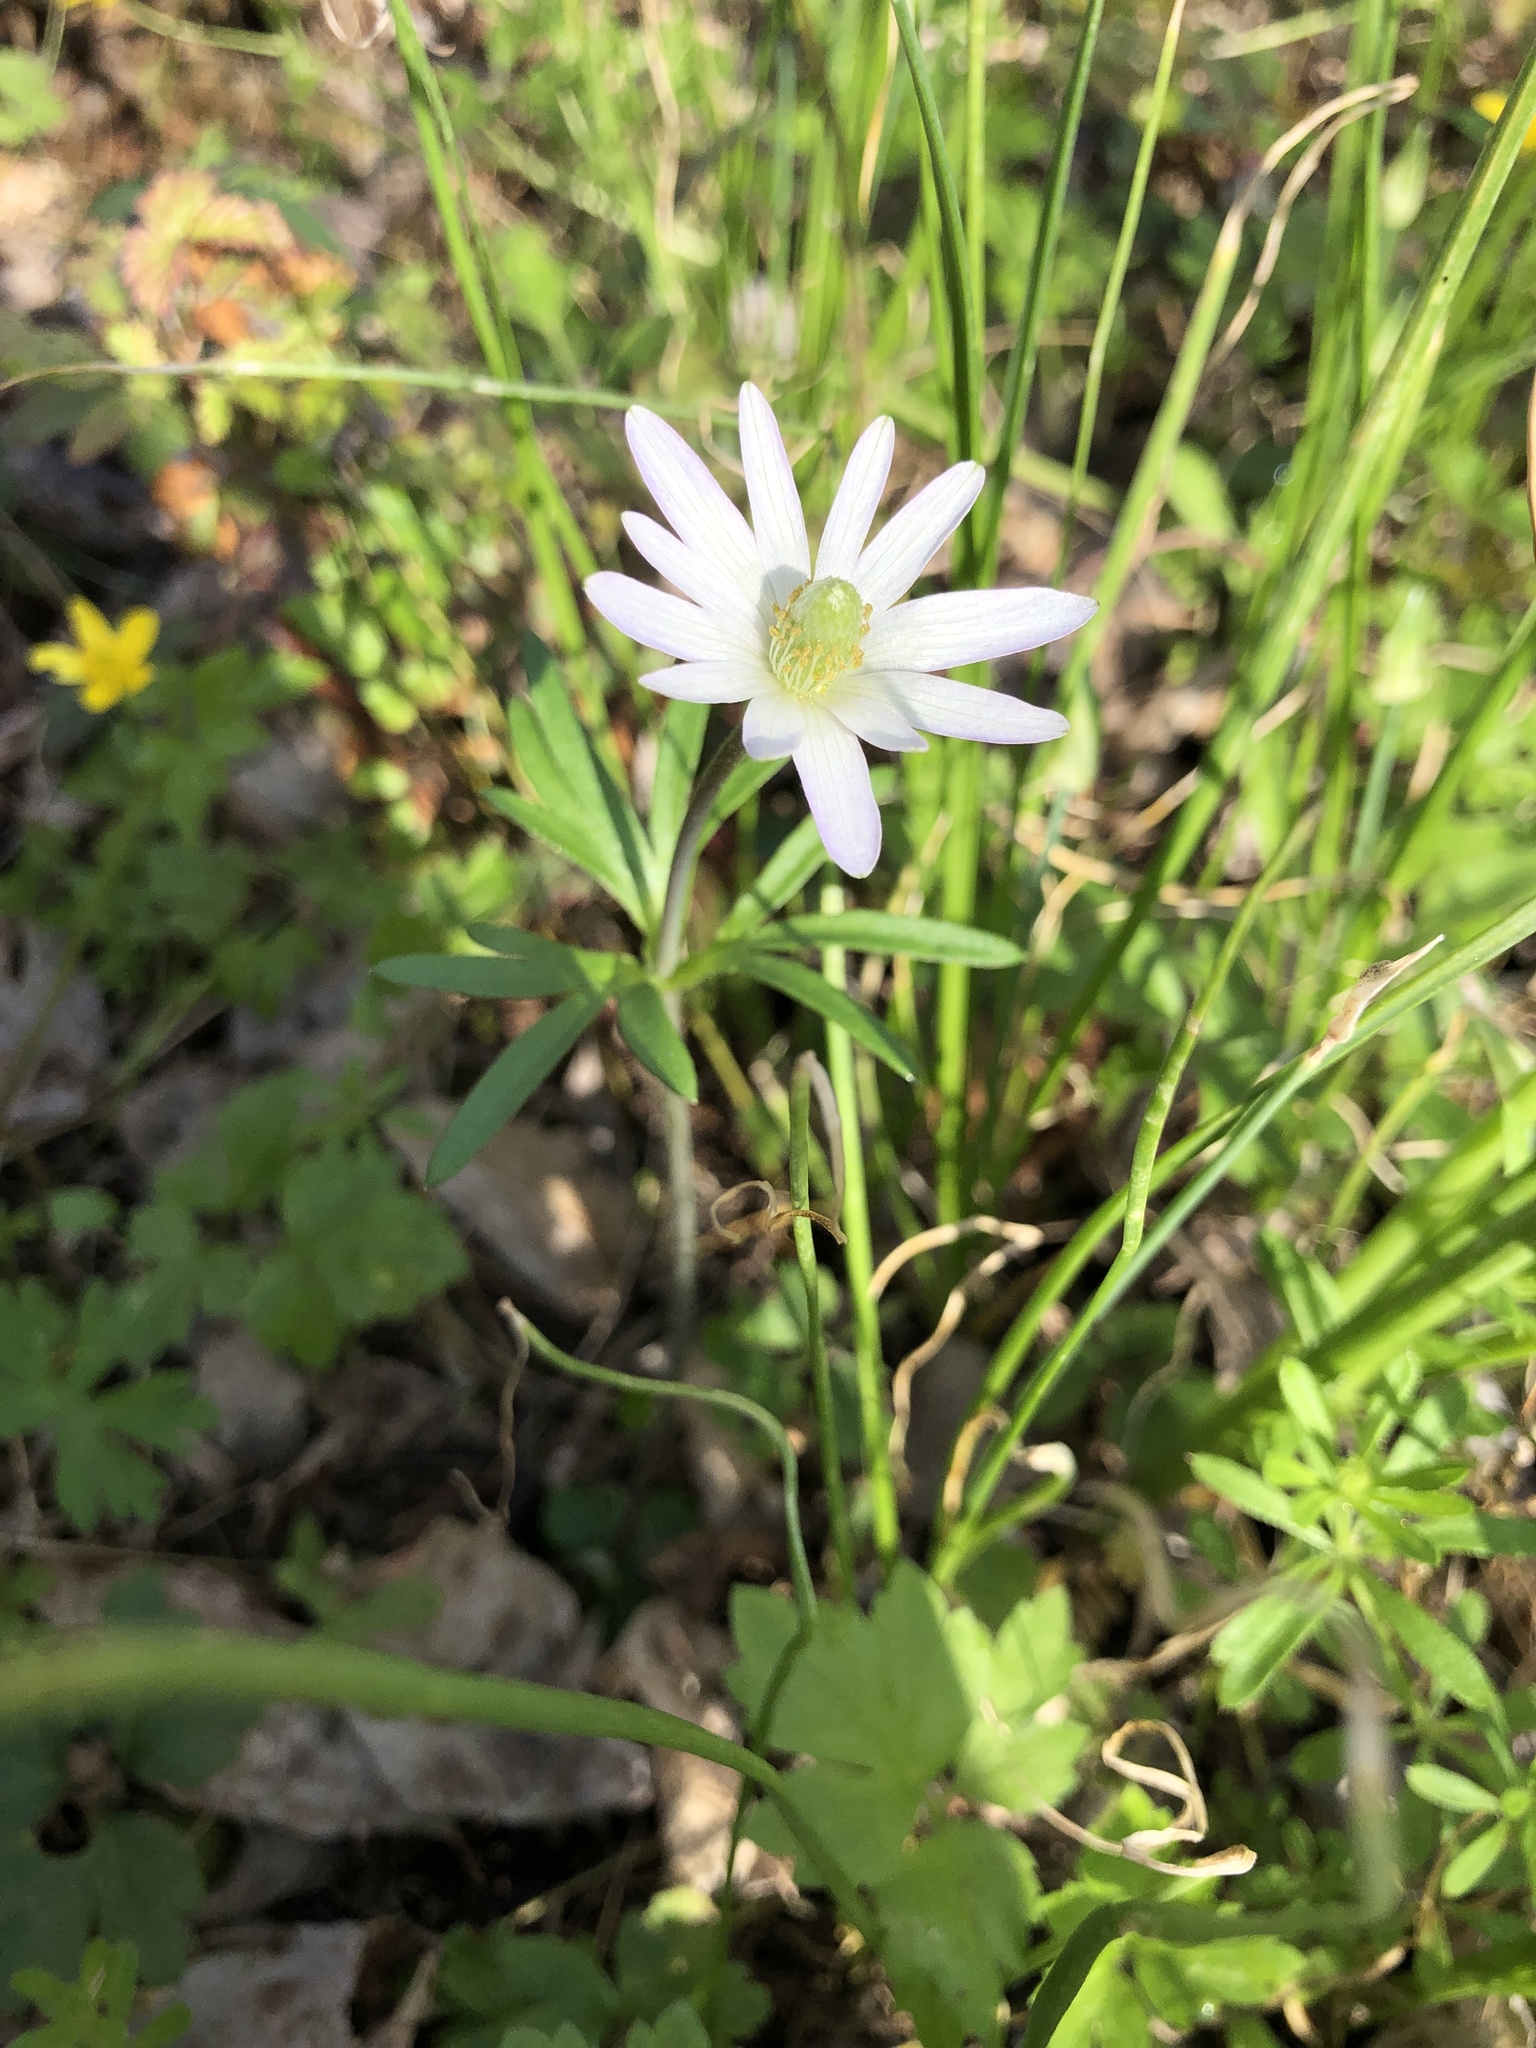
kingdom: Plantae
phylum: Tracheophyta
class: Magnoliopsida
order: Ranunculales
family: Ranunculaceae
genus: Anemone
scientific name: Anemone berlandieri
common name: Ten-petal anemone
